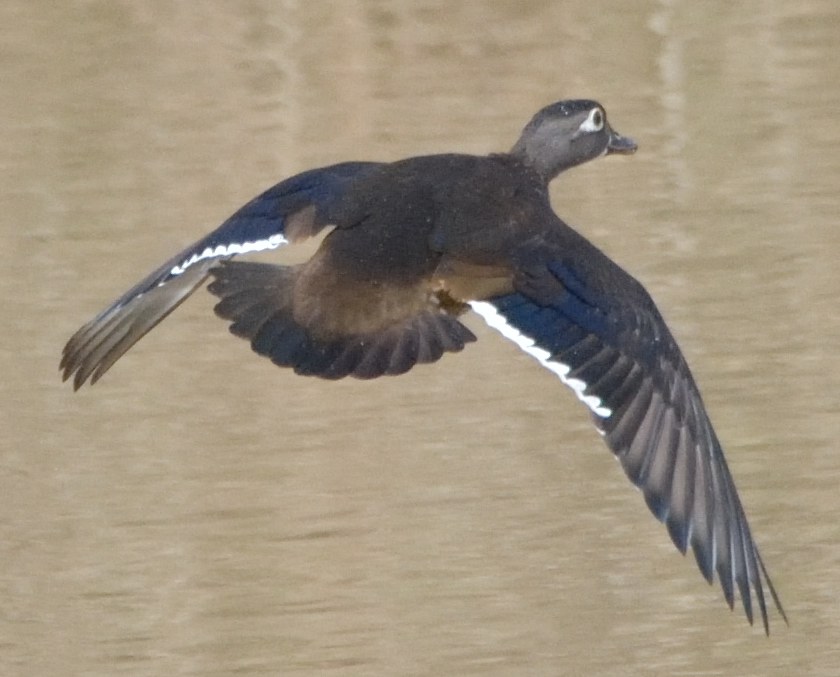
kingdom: Animalia
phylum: Chordata
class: Aves
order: Anseriformes
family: Anatidae
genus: Aix
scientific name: Aix sponsa
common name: Wood duck
